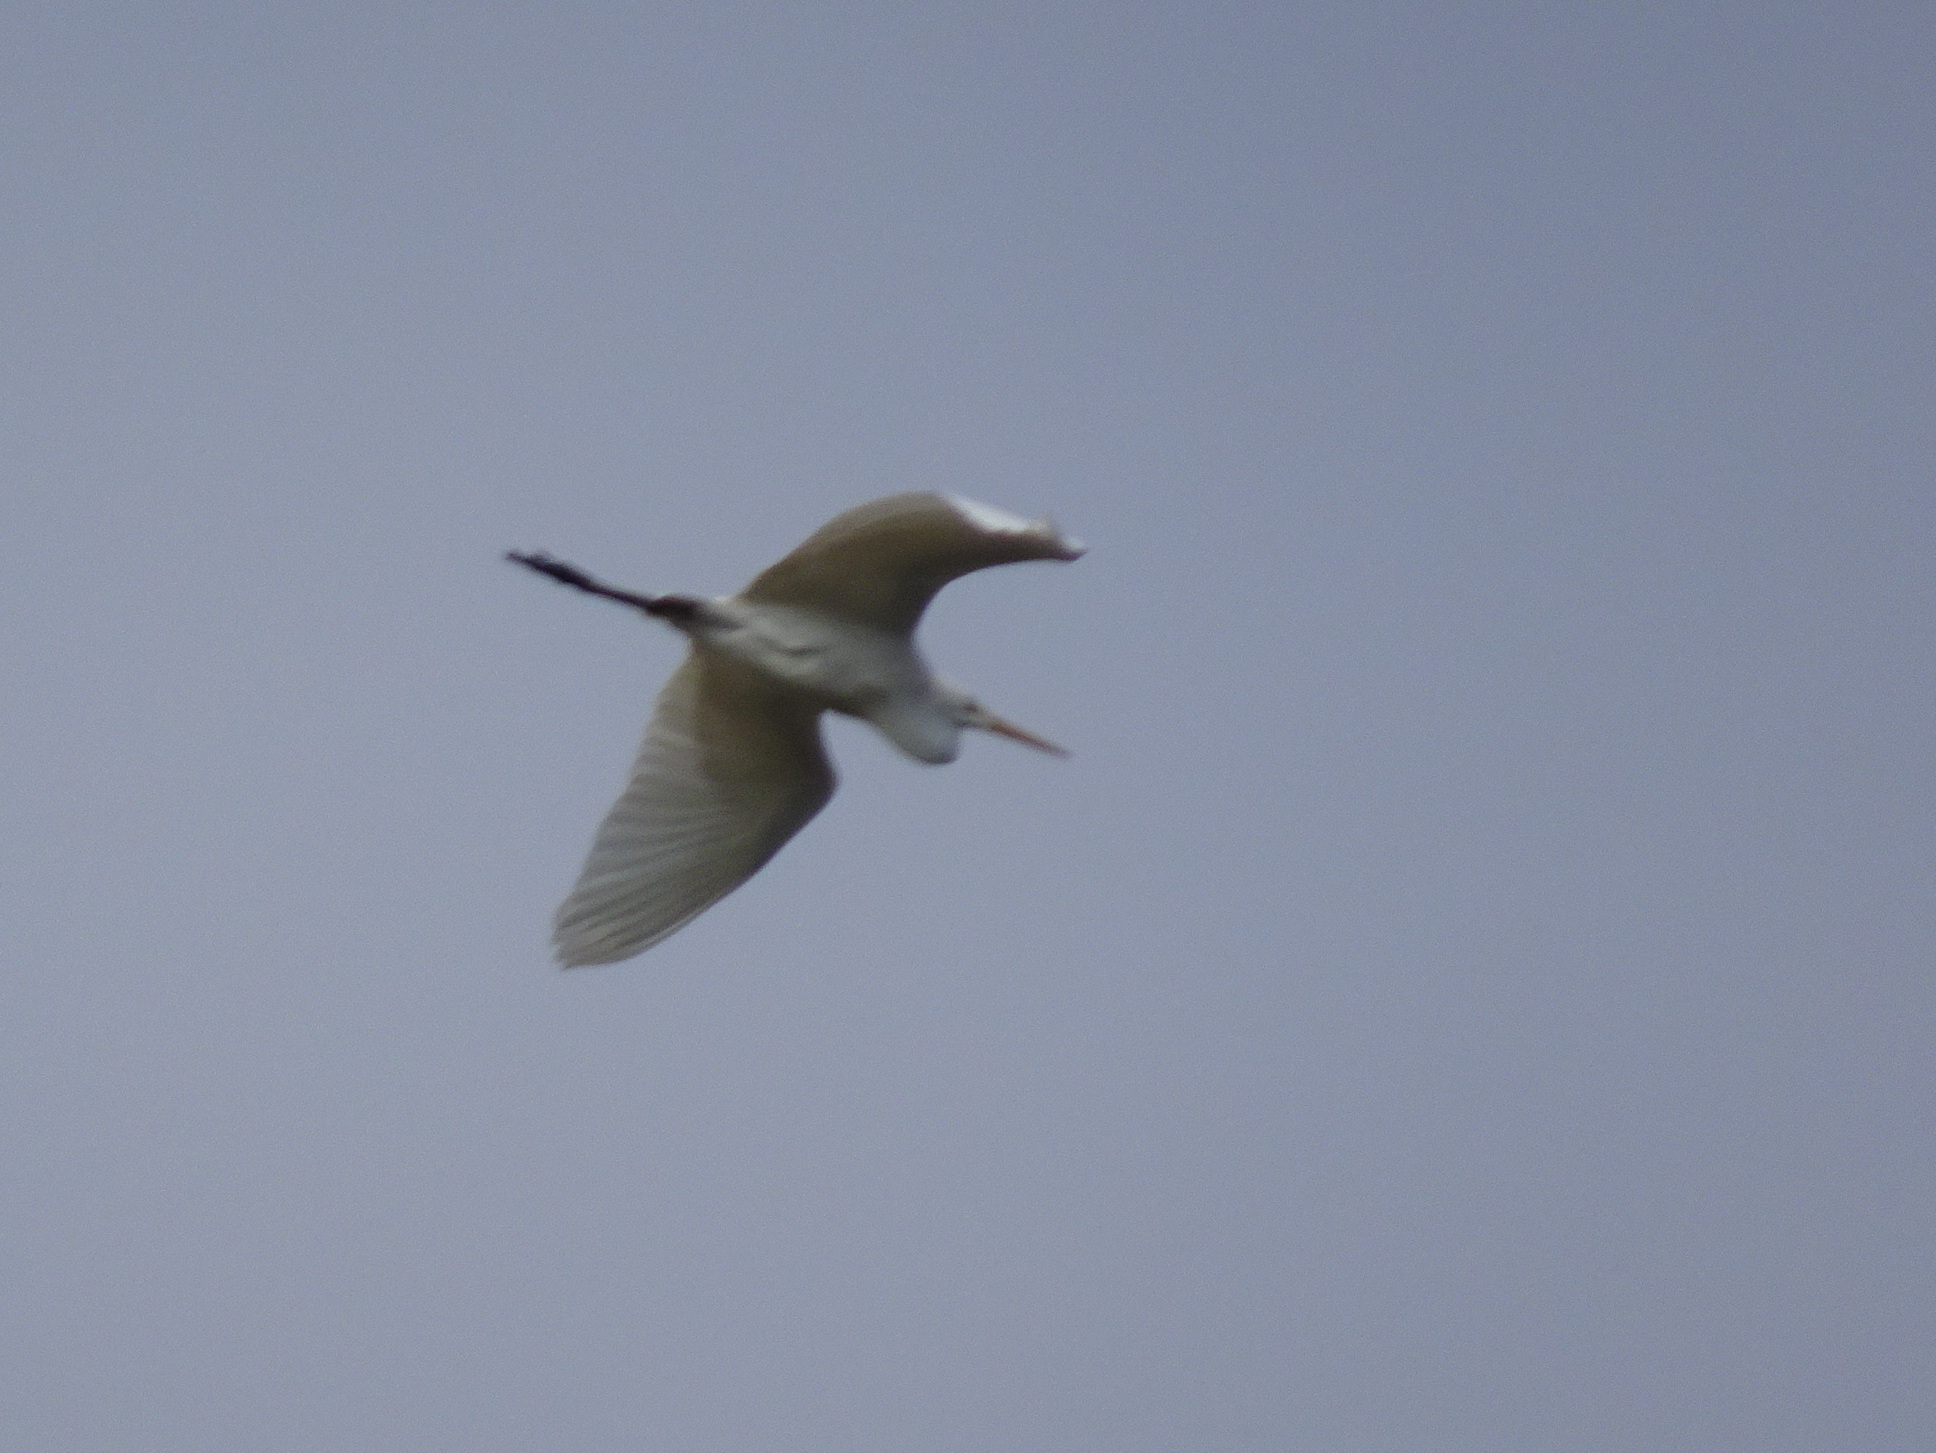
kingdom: Animalia
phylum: Chordata
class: Aves
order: Pelecaniformes
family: Ardeidae
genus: Ardea
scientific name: Ardea alba
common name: Great egret
